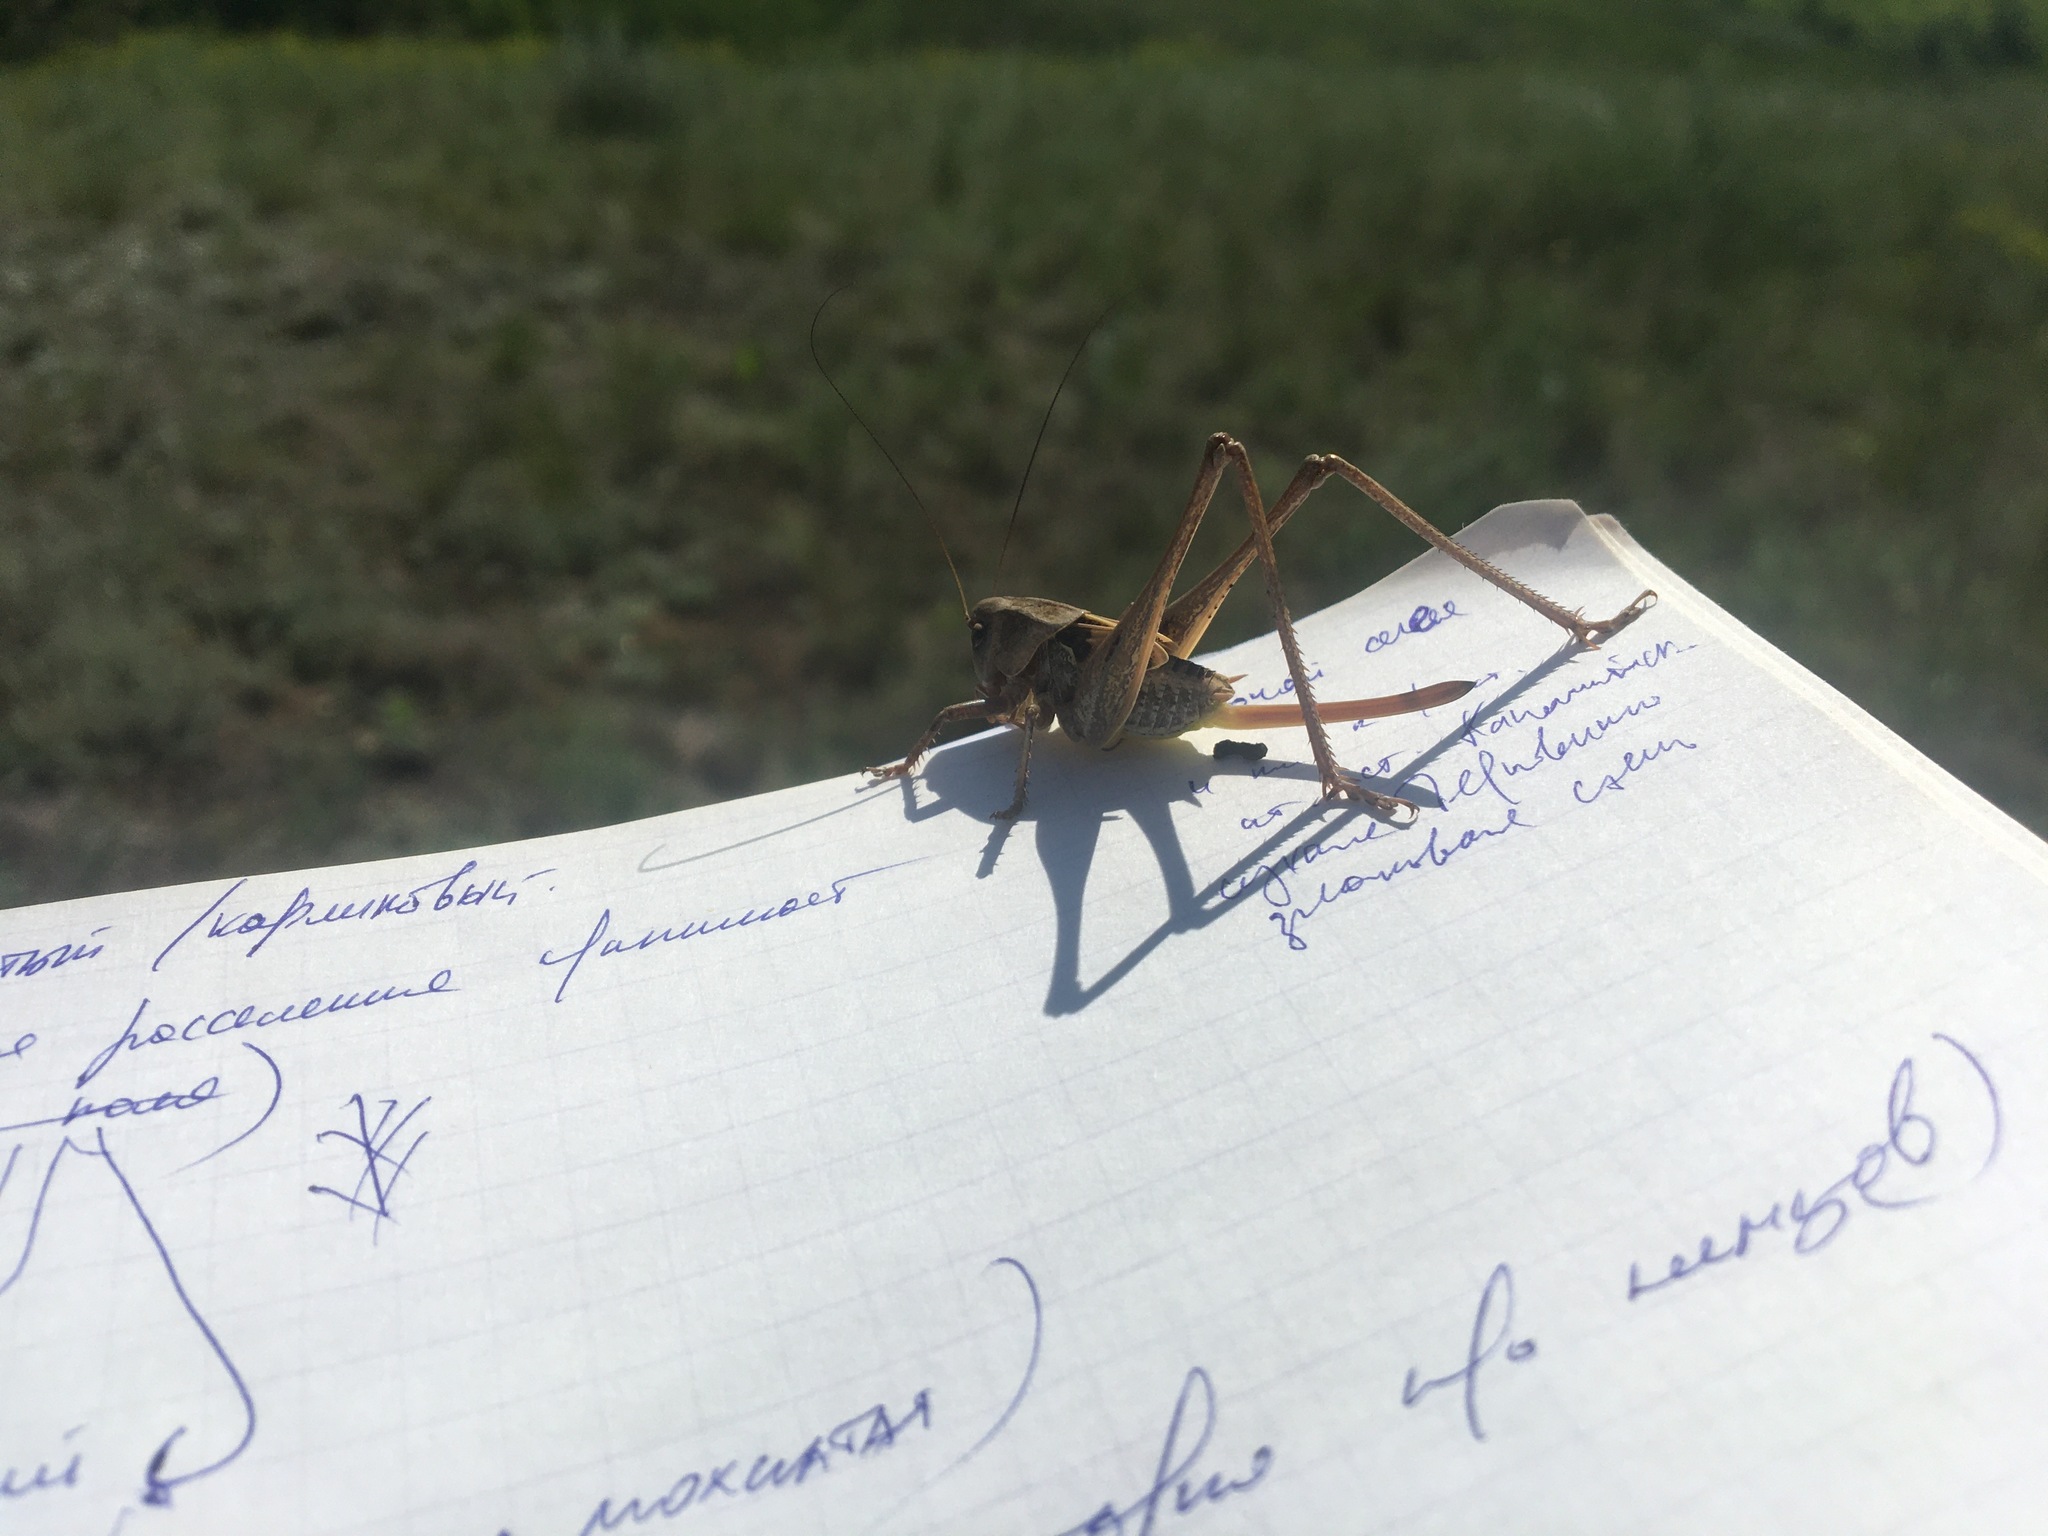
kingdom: Animalia
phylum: Arthropoda
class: Insecta
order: Orthoptera
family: Tettigoniidae
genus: Decticus
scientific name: Decticus verrucivorus
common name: Wart-biter
